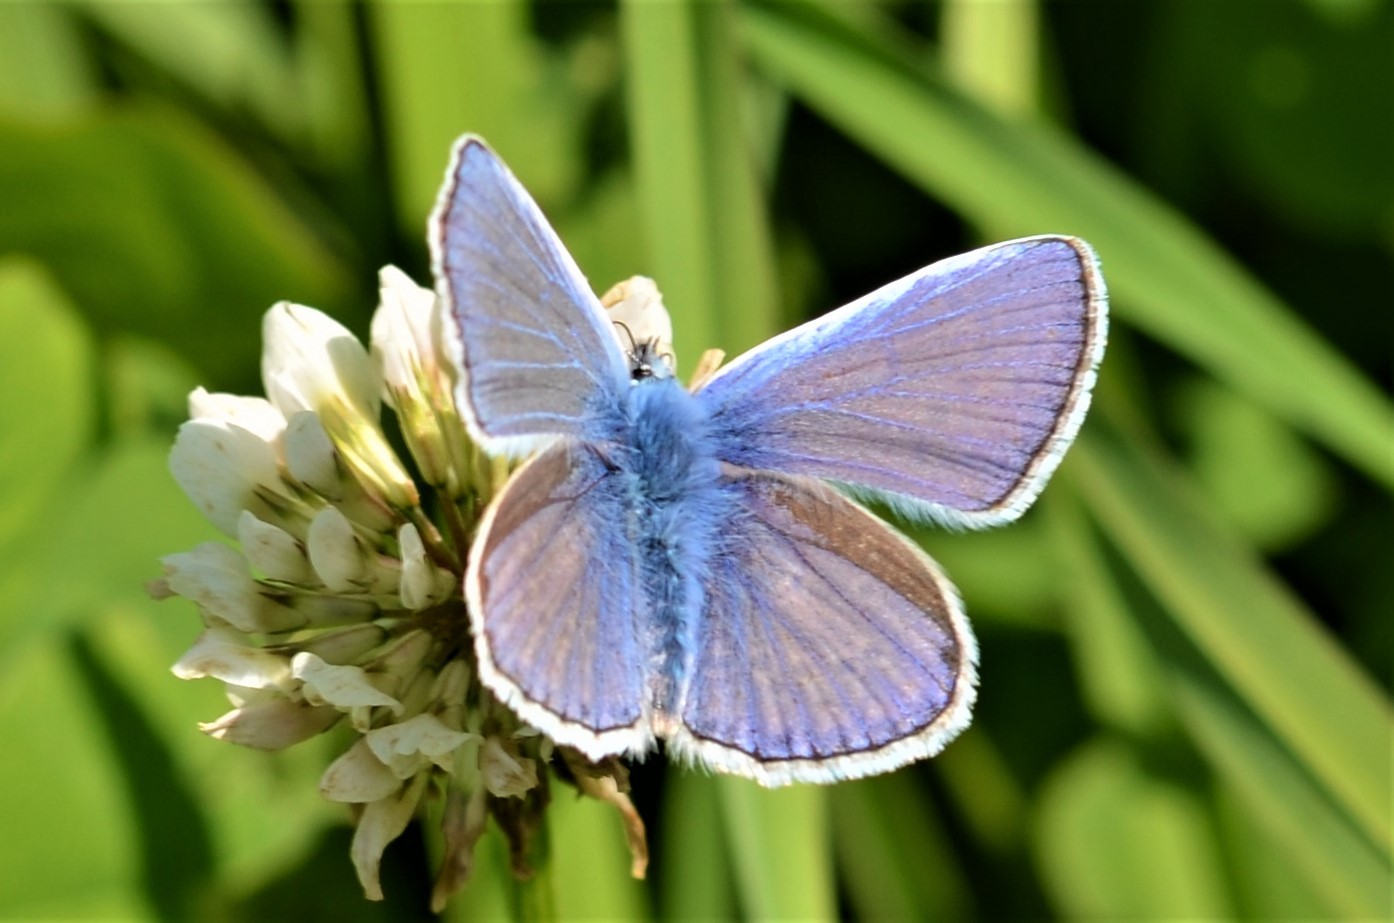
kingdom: Animalia
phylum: Arthropoda
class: Insecta
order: Lepidoptera
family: Lycaenidae
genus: Polyommatus
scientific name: Polyommatus icarus
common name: Common blue
